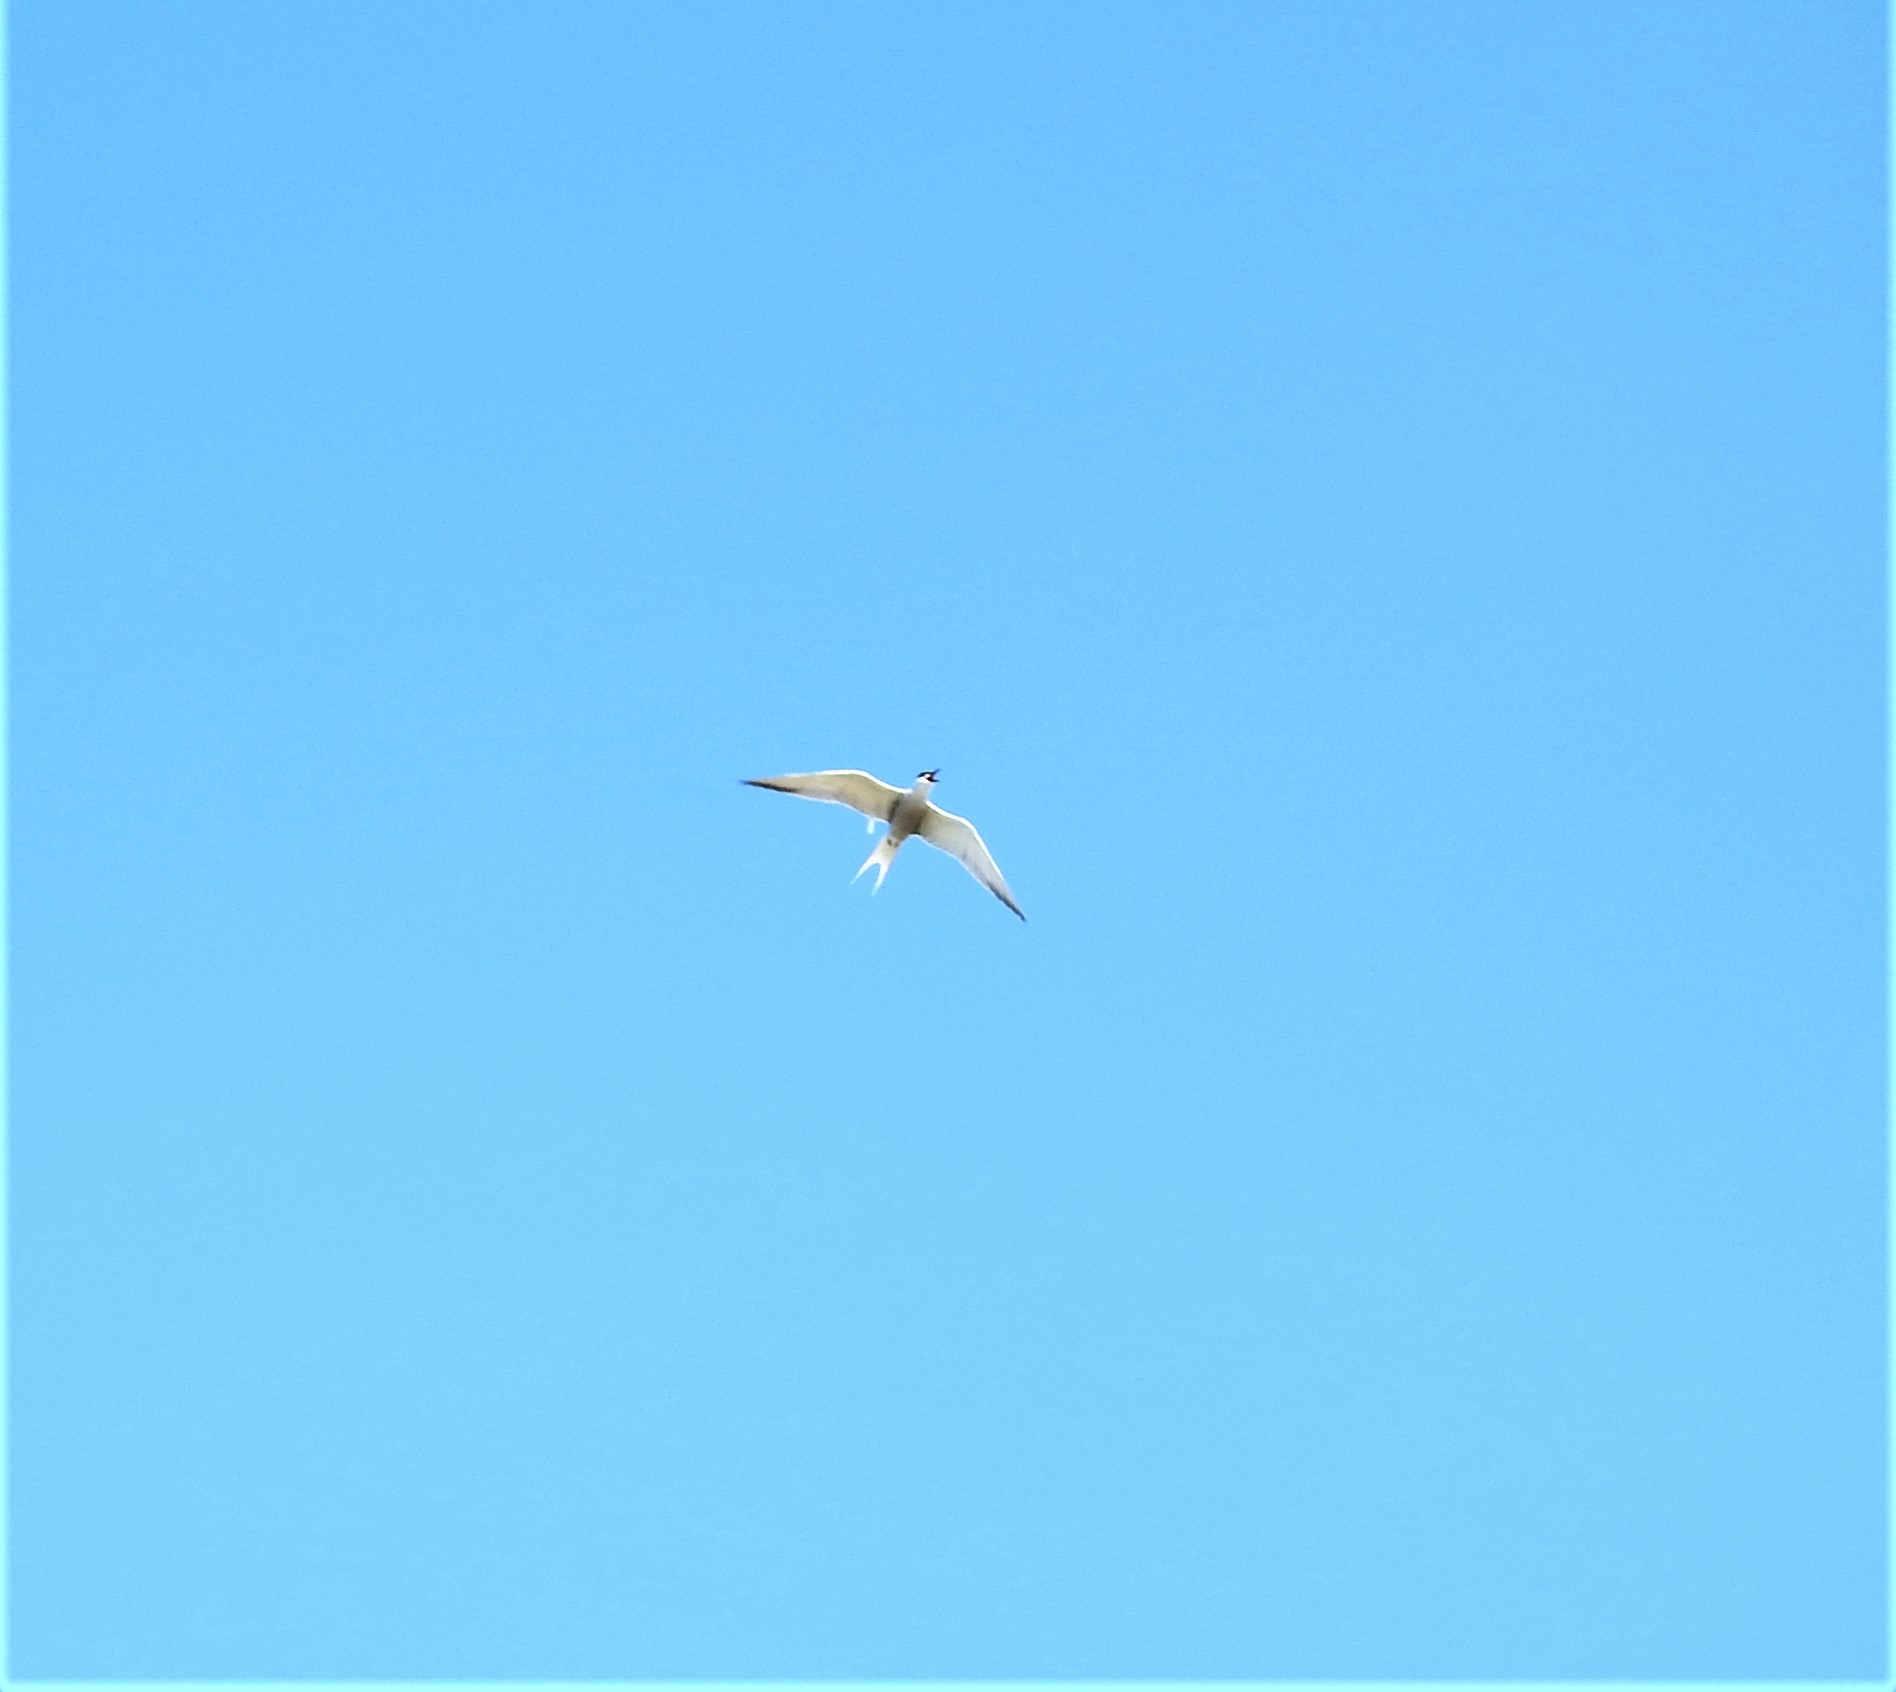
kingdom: Animalia
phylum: Chordata
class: Aves
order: Charadriiformes
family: Laridae
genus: Sterna
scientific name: Sterna hirundo
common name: Common tern
